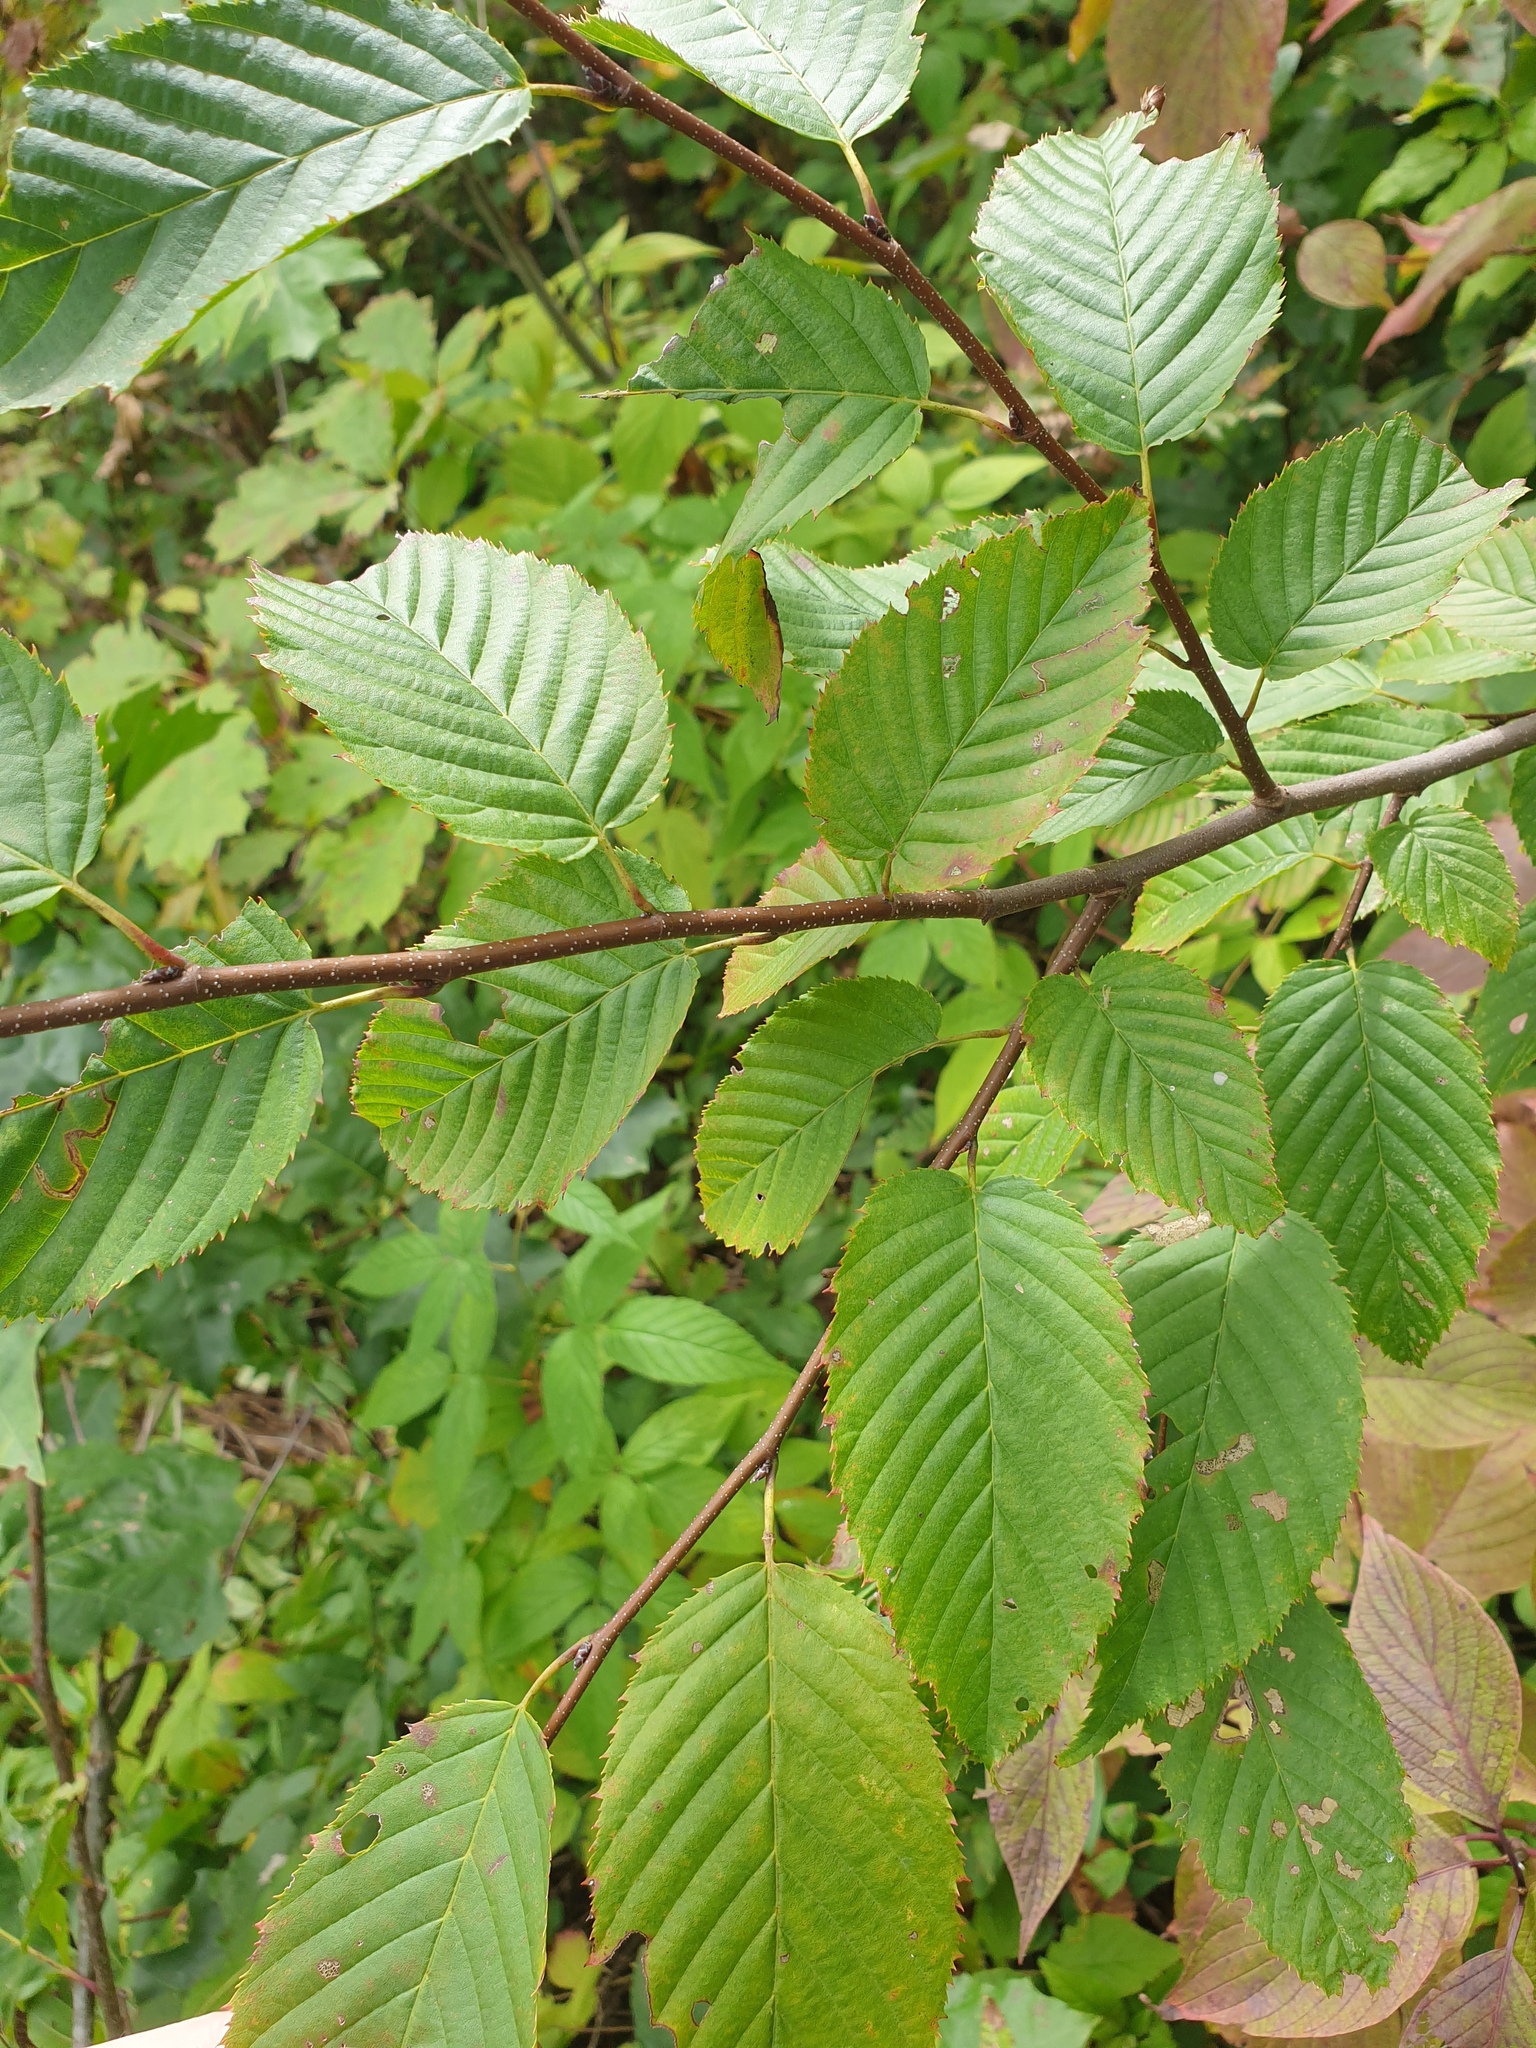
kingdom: Plantae
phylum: Tracheophyta
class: Magnoliopsida
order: Fagales
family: Betulaceae
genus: Carpinus
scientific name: Carpinus caroliniana
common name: American hornbeam
